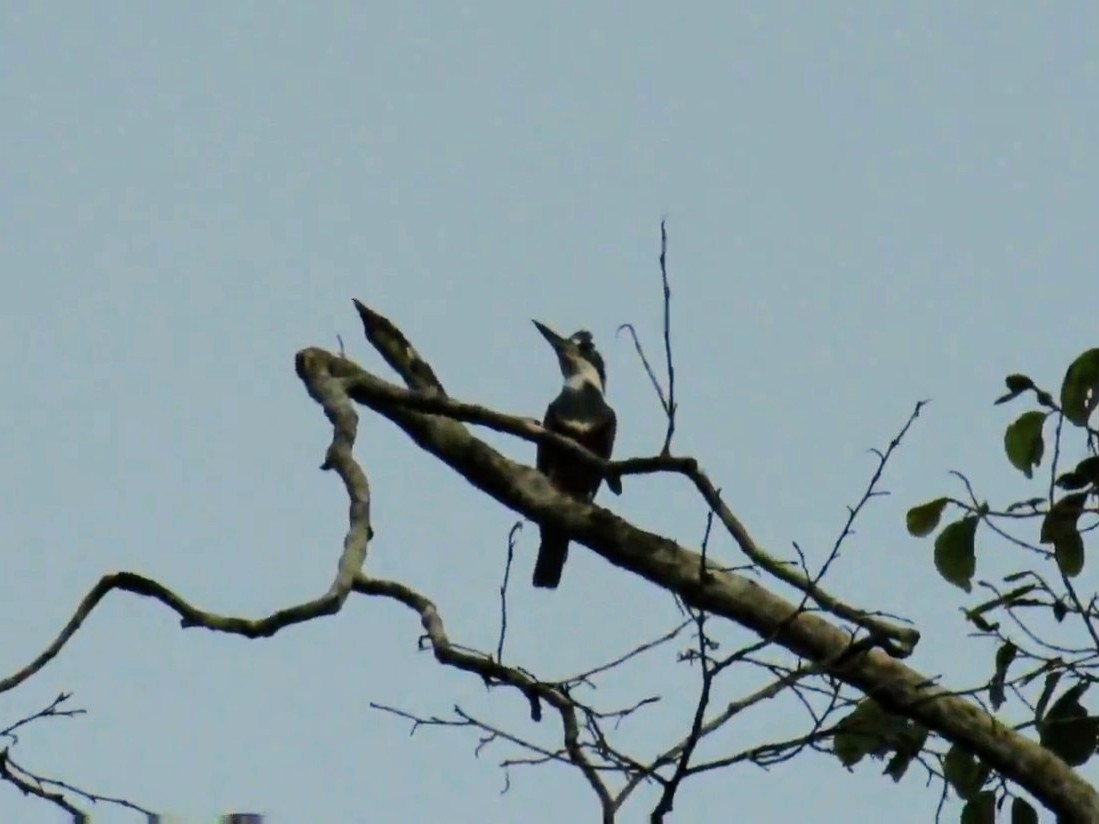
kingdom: Animalia
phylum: Chordata
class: Aves
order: Coraciiformes
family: Alcedinidae
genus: Megaceryle
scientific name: Megaceryle torquata
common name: Ringed kingfisher
